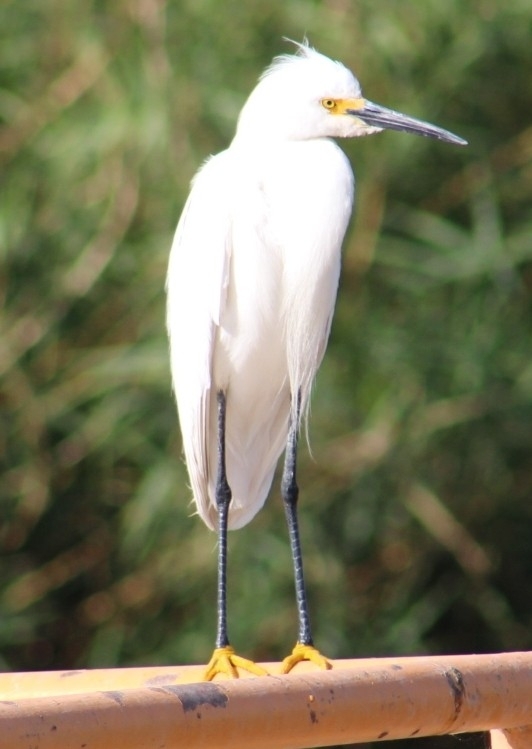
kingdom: Animalia
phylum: Chordata
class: Aves
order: Pelecaniformes
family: Ardeidae
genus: Egretta
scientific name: Egretta thula
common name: Snowy egret
